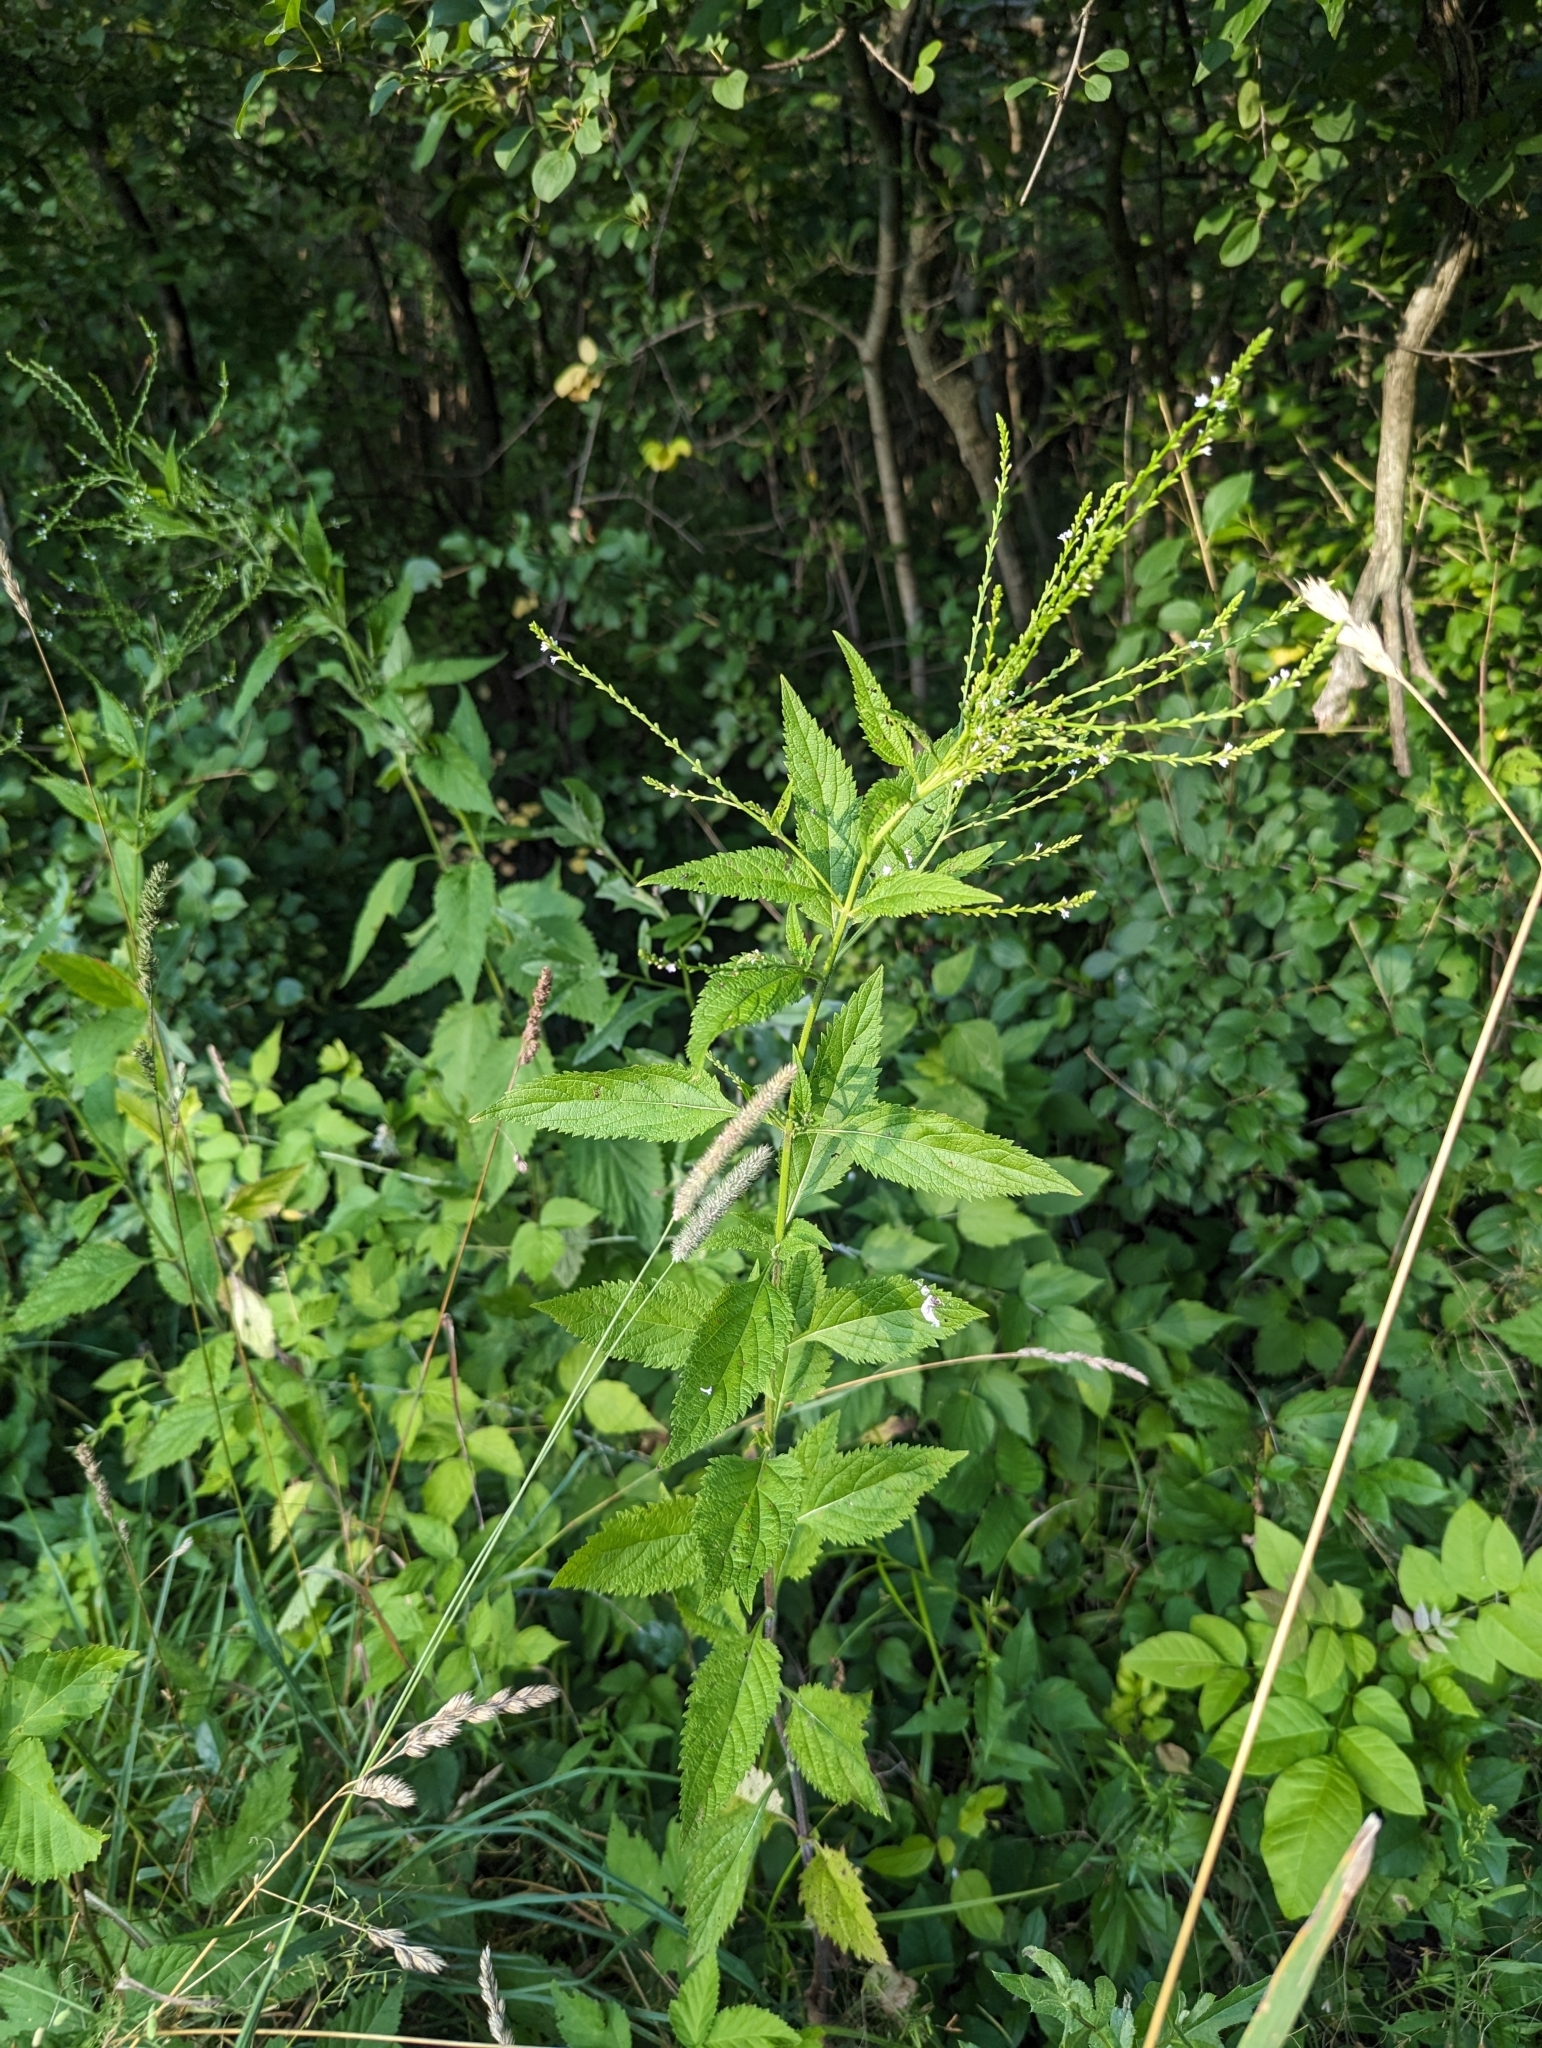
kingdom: Plantae
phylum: Tracheophyta
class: Magnoliopsida
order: Lamiales
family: Verbenaceae
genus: Verbena
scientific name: Verbena urticifolia
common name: Nettle-leaved vervain
